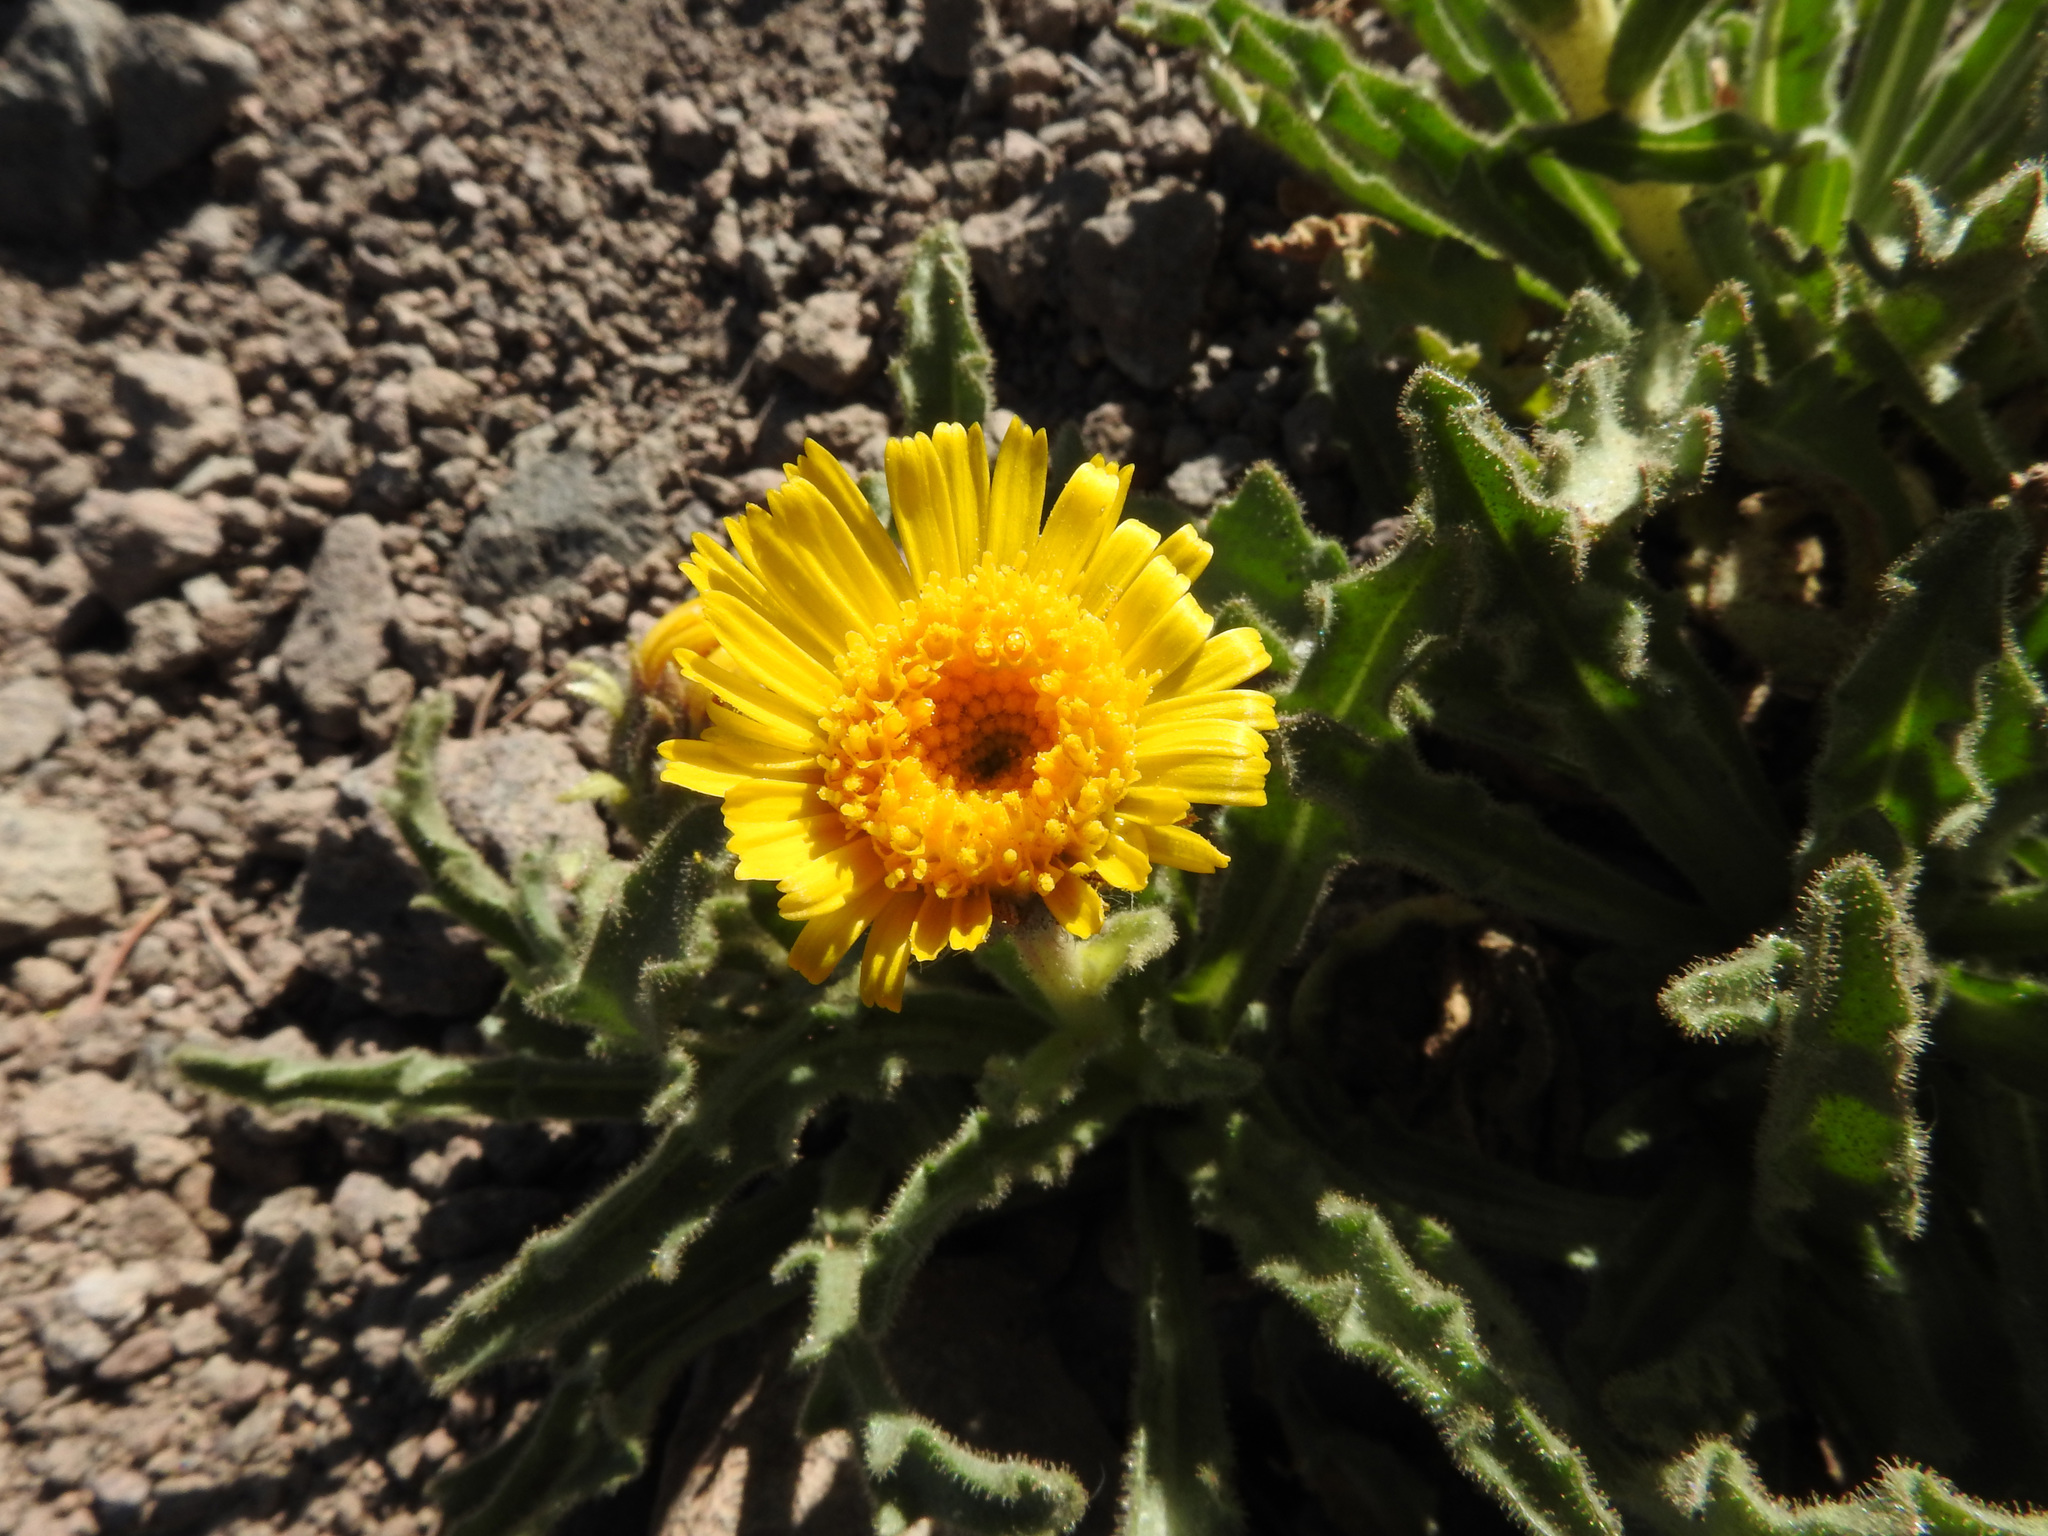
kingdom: Plantae
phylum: Tracheophyta
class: Magnoliopsida
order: Asterales
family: Asteraceae
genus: Hulsea
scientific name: Hulsea algida
